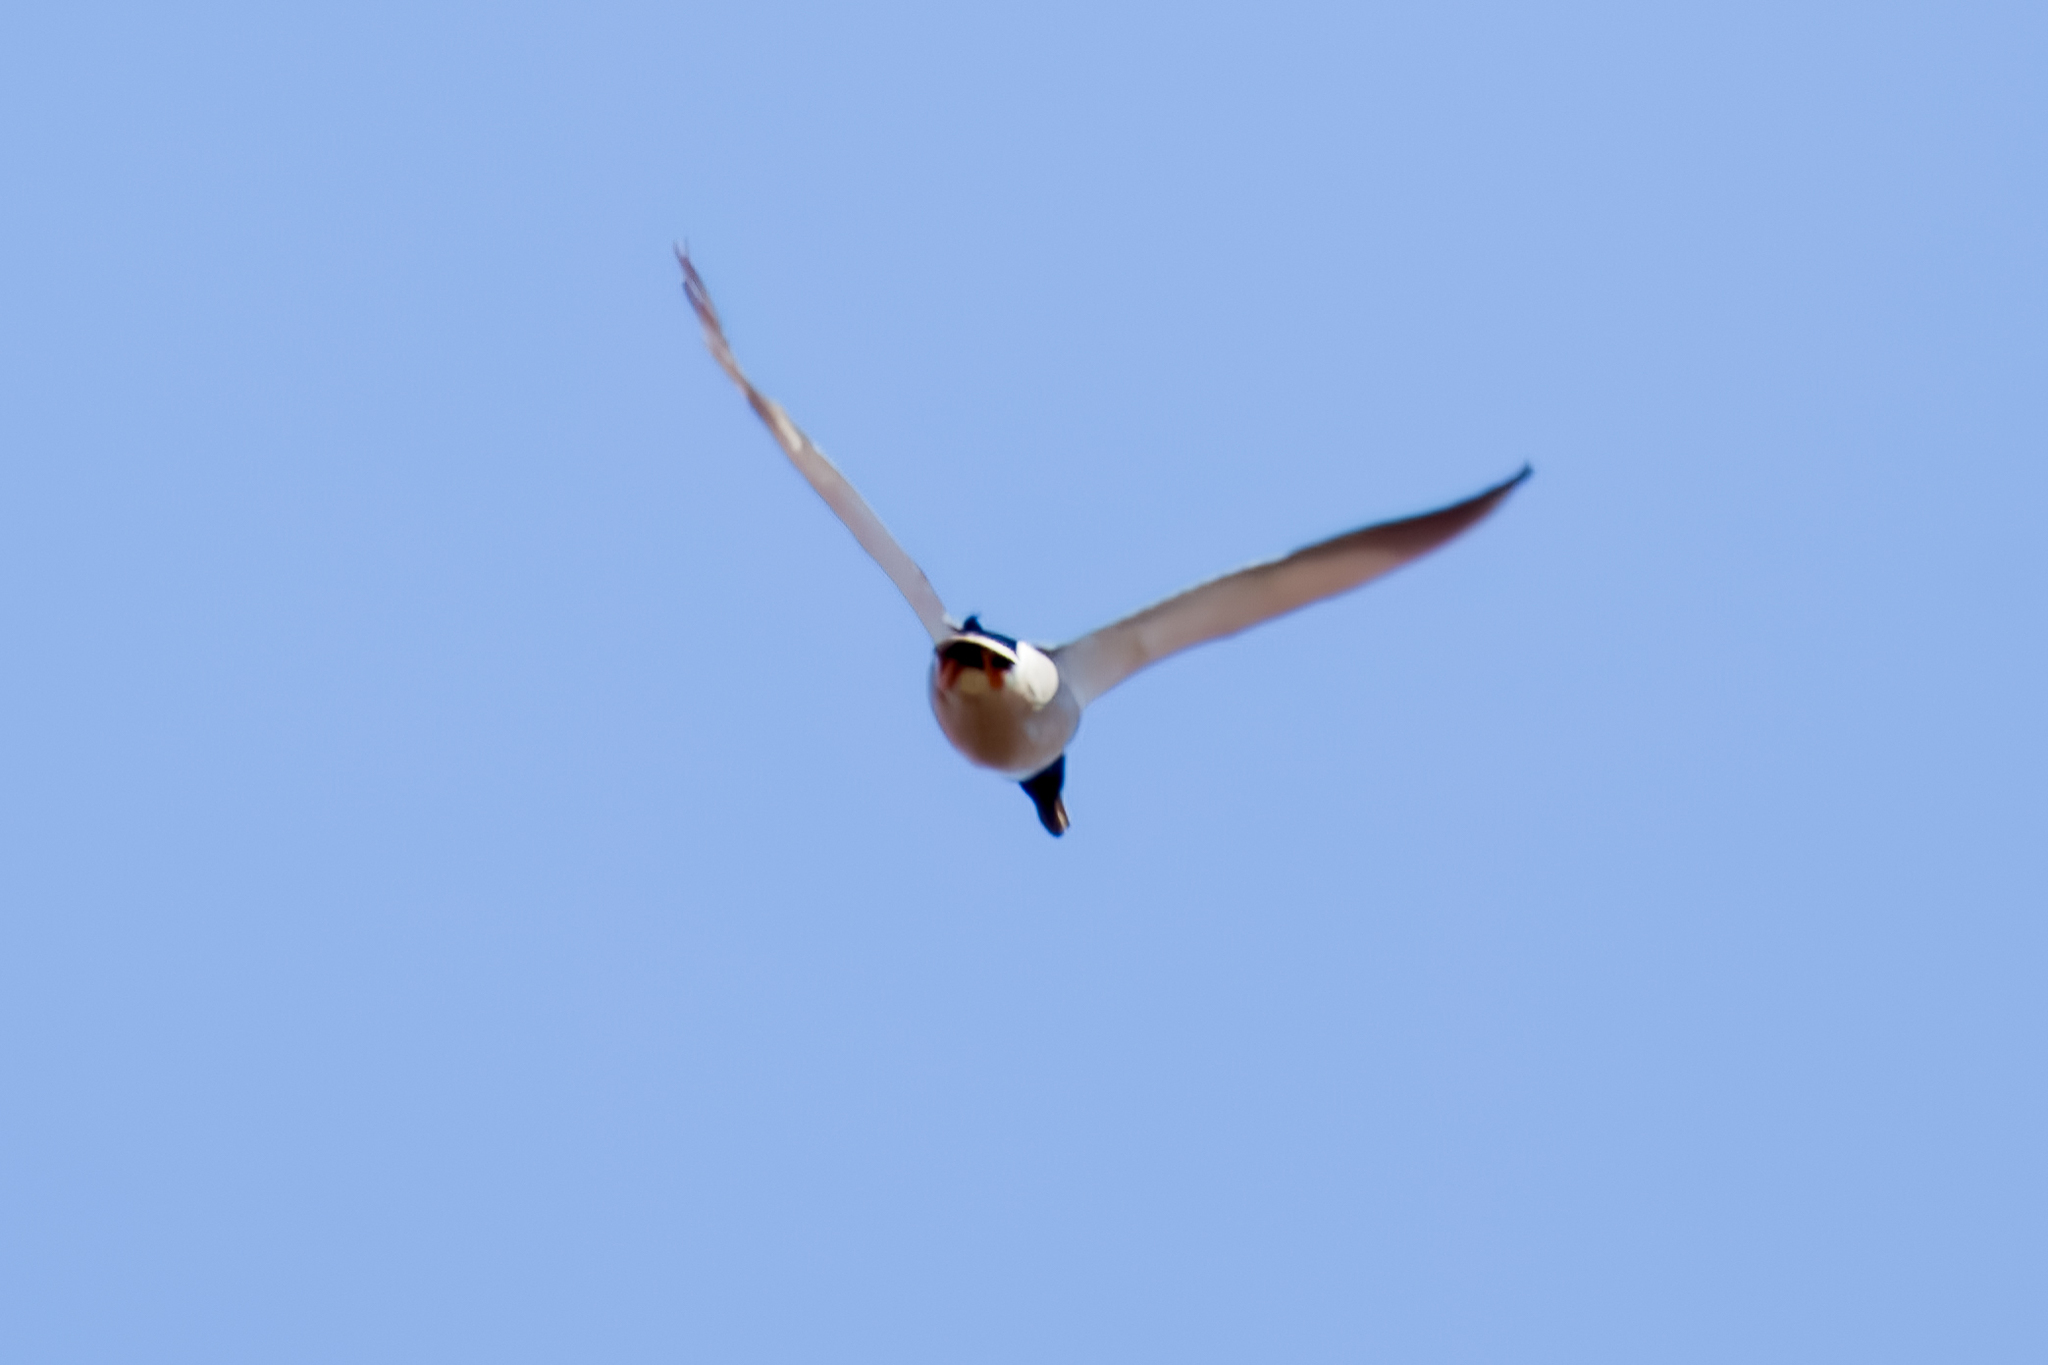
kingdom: Animalia
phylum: Chordata
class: Aves
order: Anseriformes
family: Anatidae
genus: Anas
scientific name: Anas platyrhynchos
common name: Mallard
